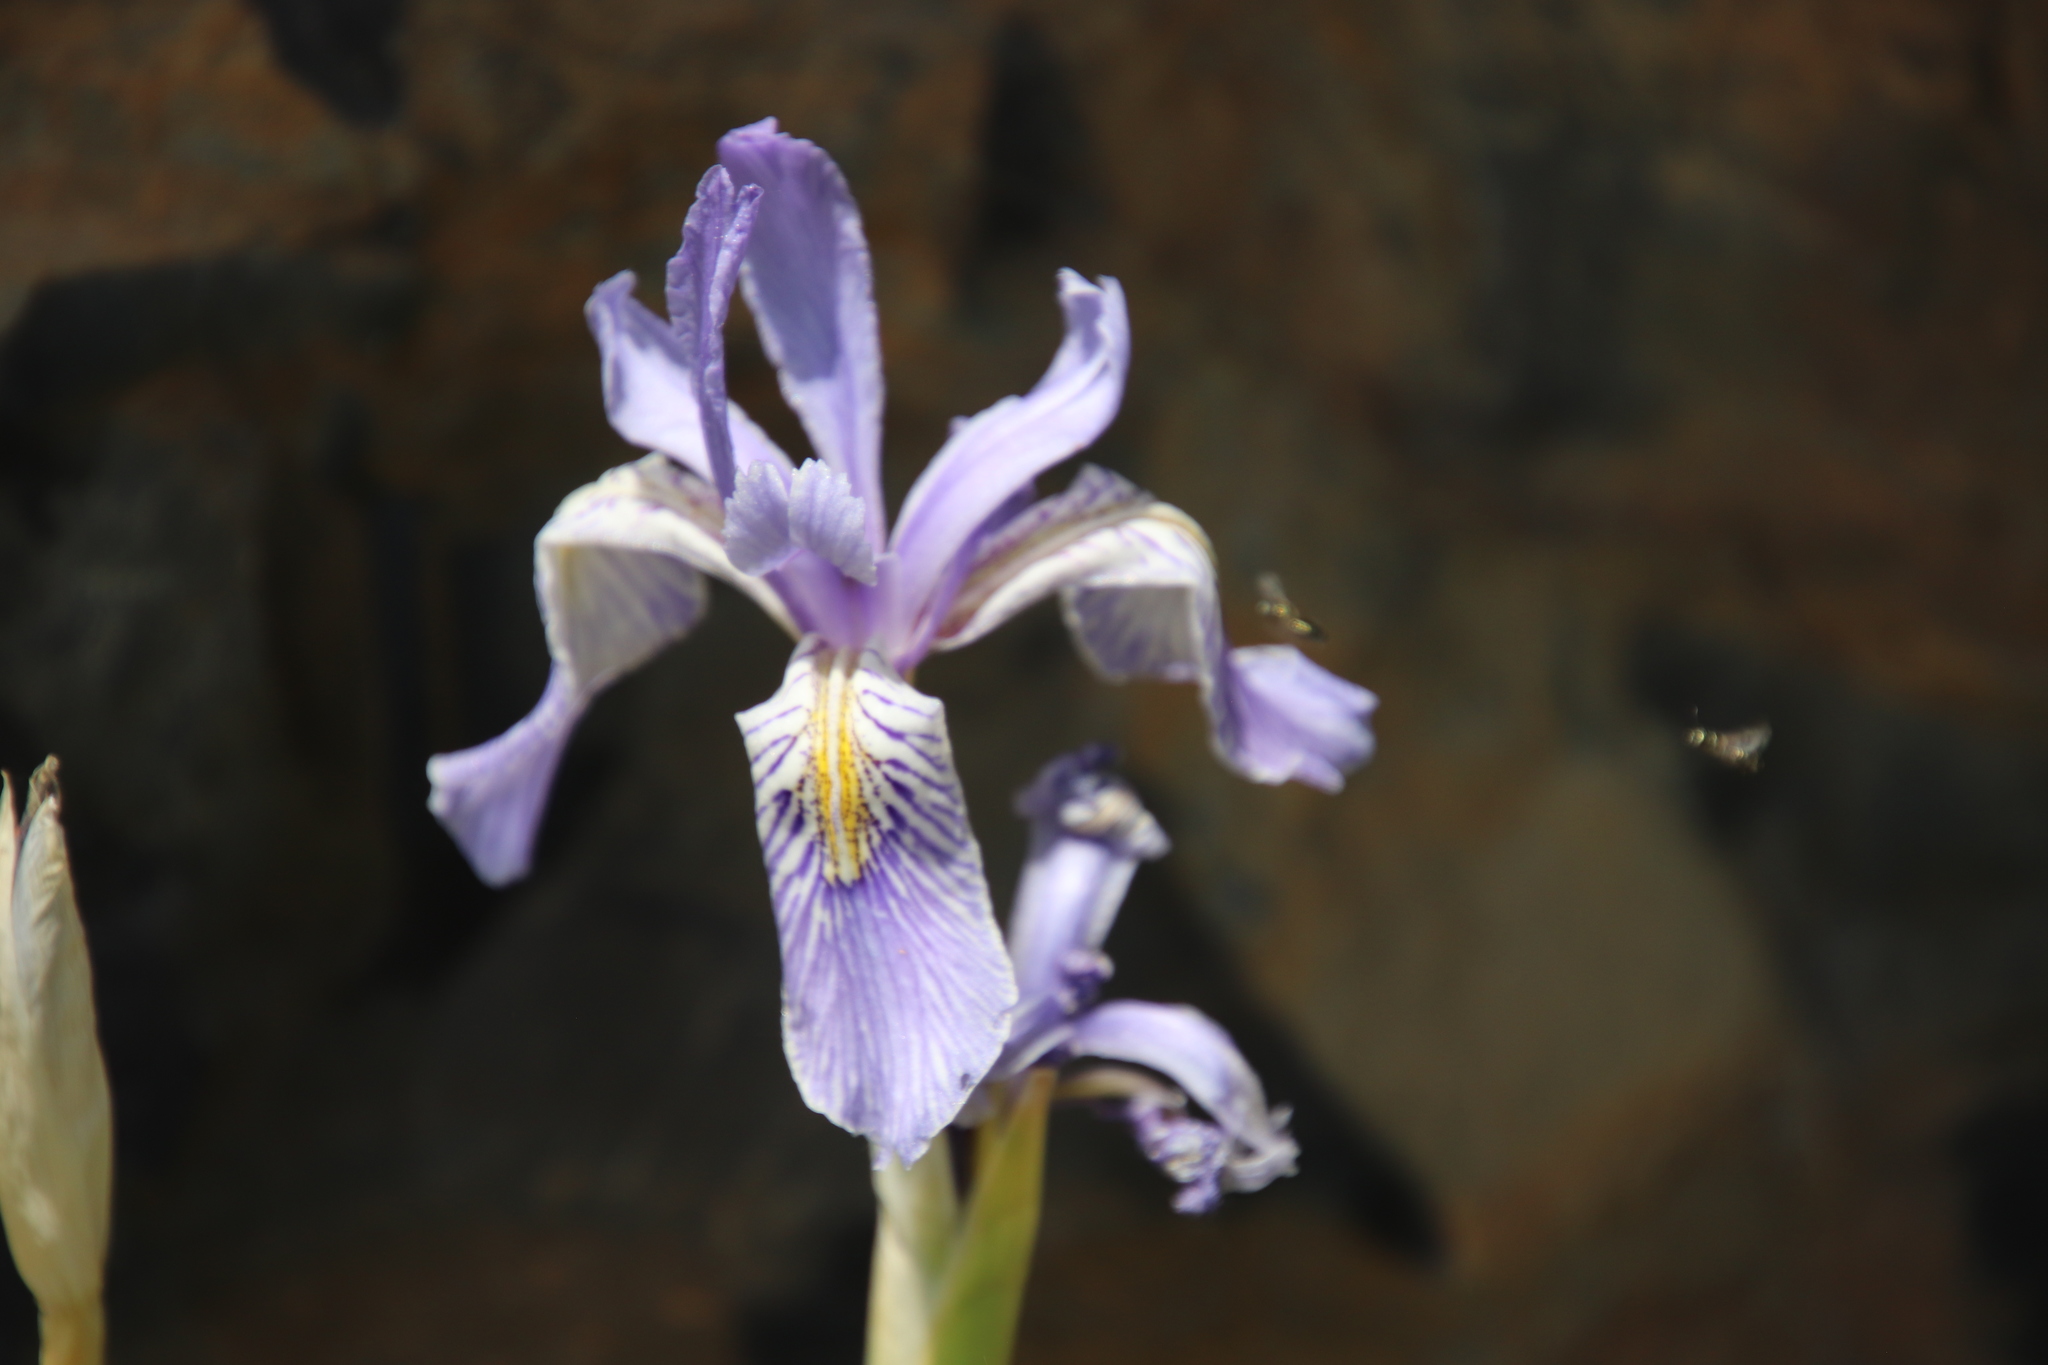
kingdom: Plantae
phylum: Tracheophyta
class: Liliopsida
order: Asparagales
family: Iridaceae
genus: Iris
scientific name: Iris missouriensis
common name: Rocky mountain iris
